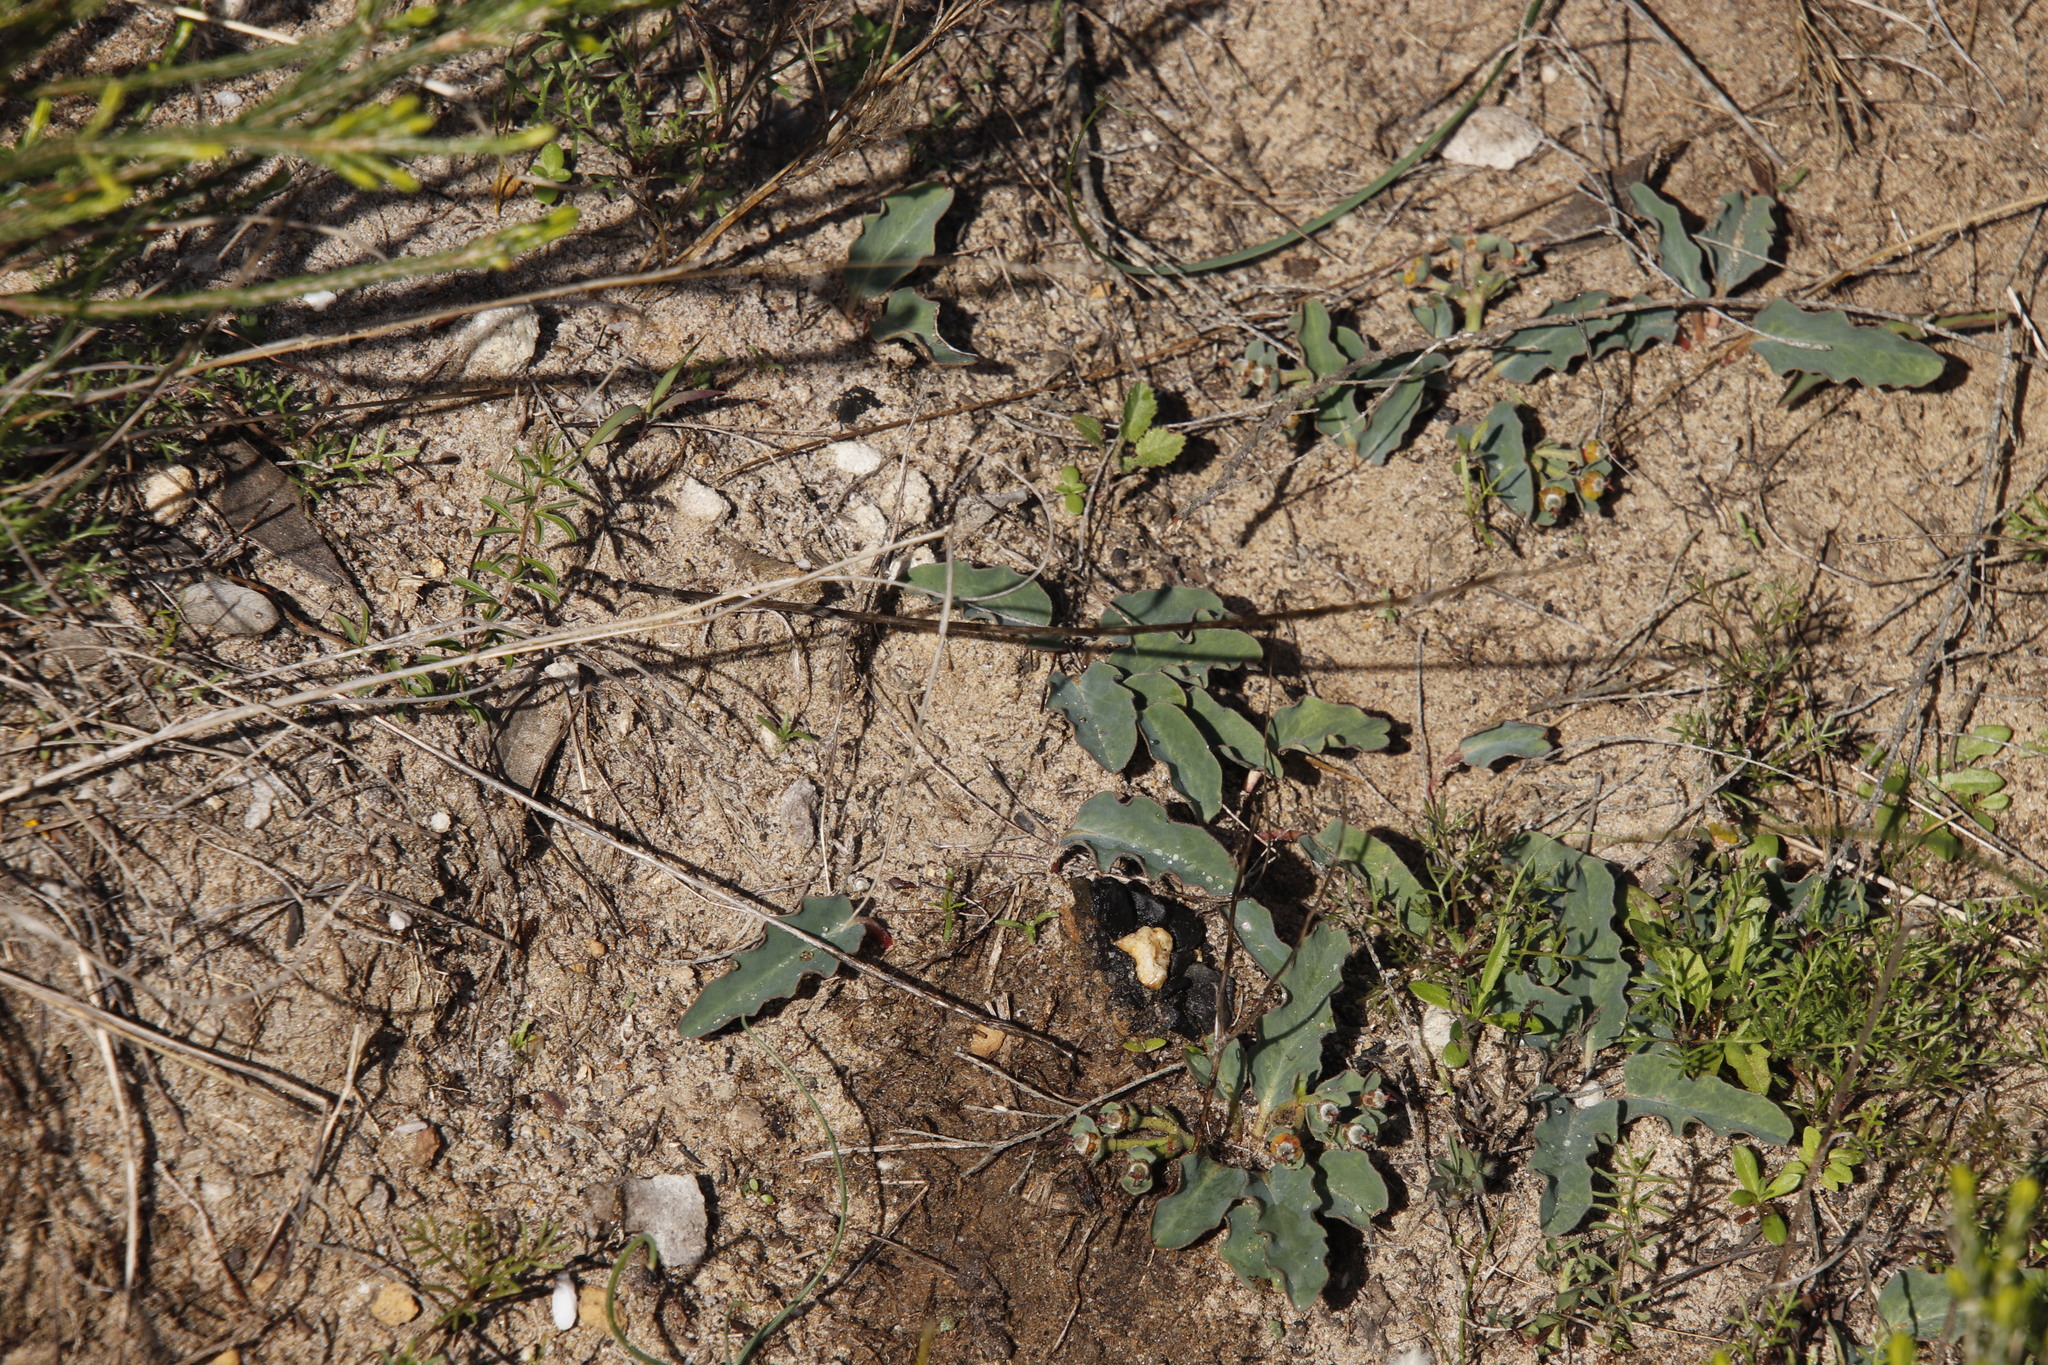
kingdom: Plantae
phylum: Tracheophyta
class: Magnoliopsida
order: Malpighiales
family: Euphorbiaceae
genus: Euphorbia
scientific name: Euphorbia tuberosa
